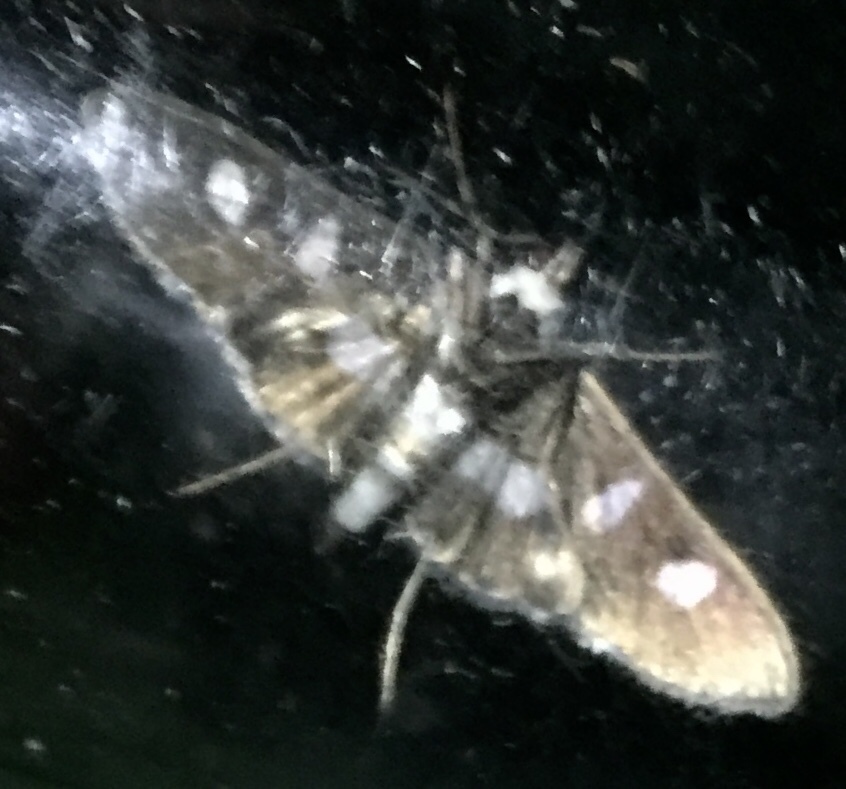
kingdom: Animalia
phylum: Arthropoda
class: Insecta
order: Lepidoptera
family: Crambidae
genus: Desmia
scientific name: Desmia funeralis
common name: Grape leaf folder moth
